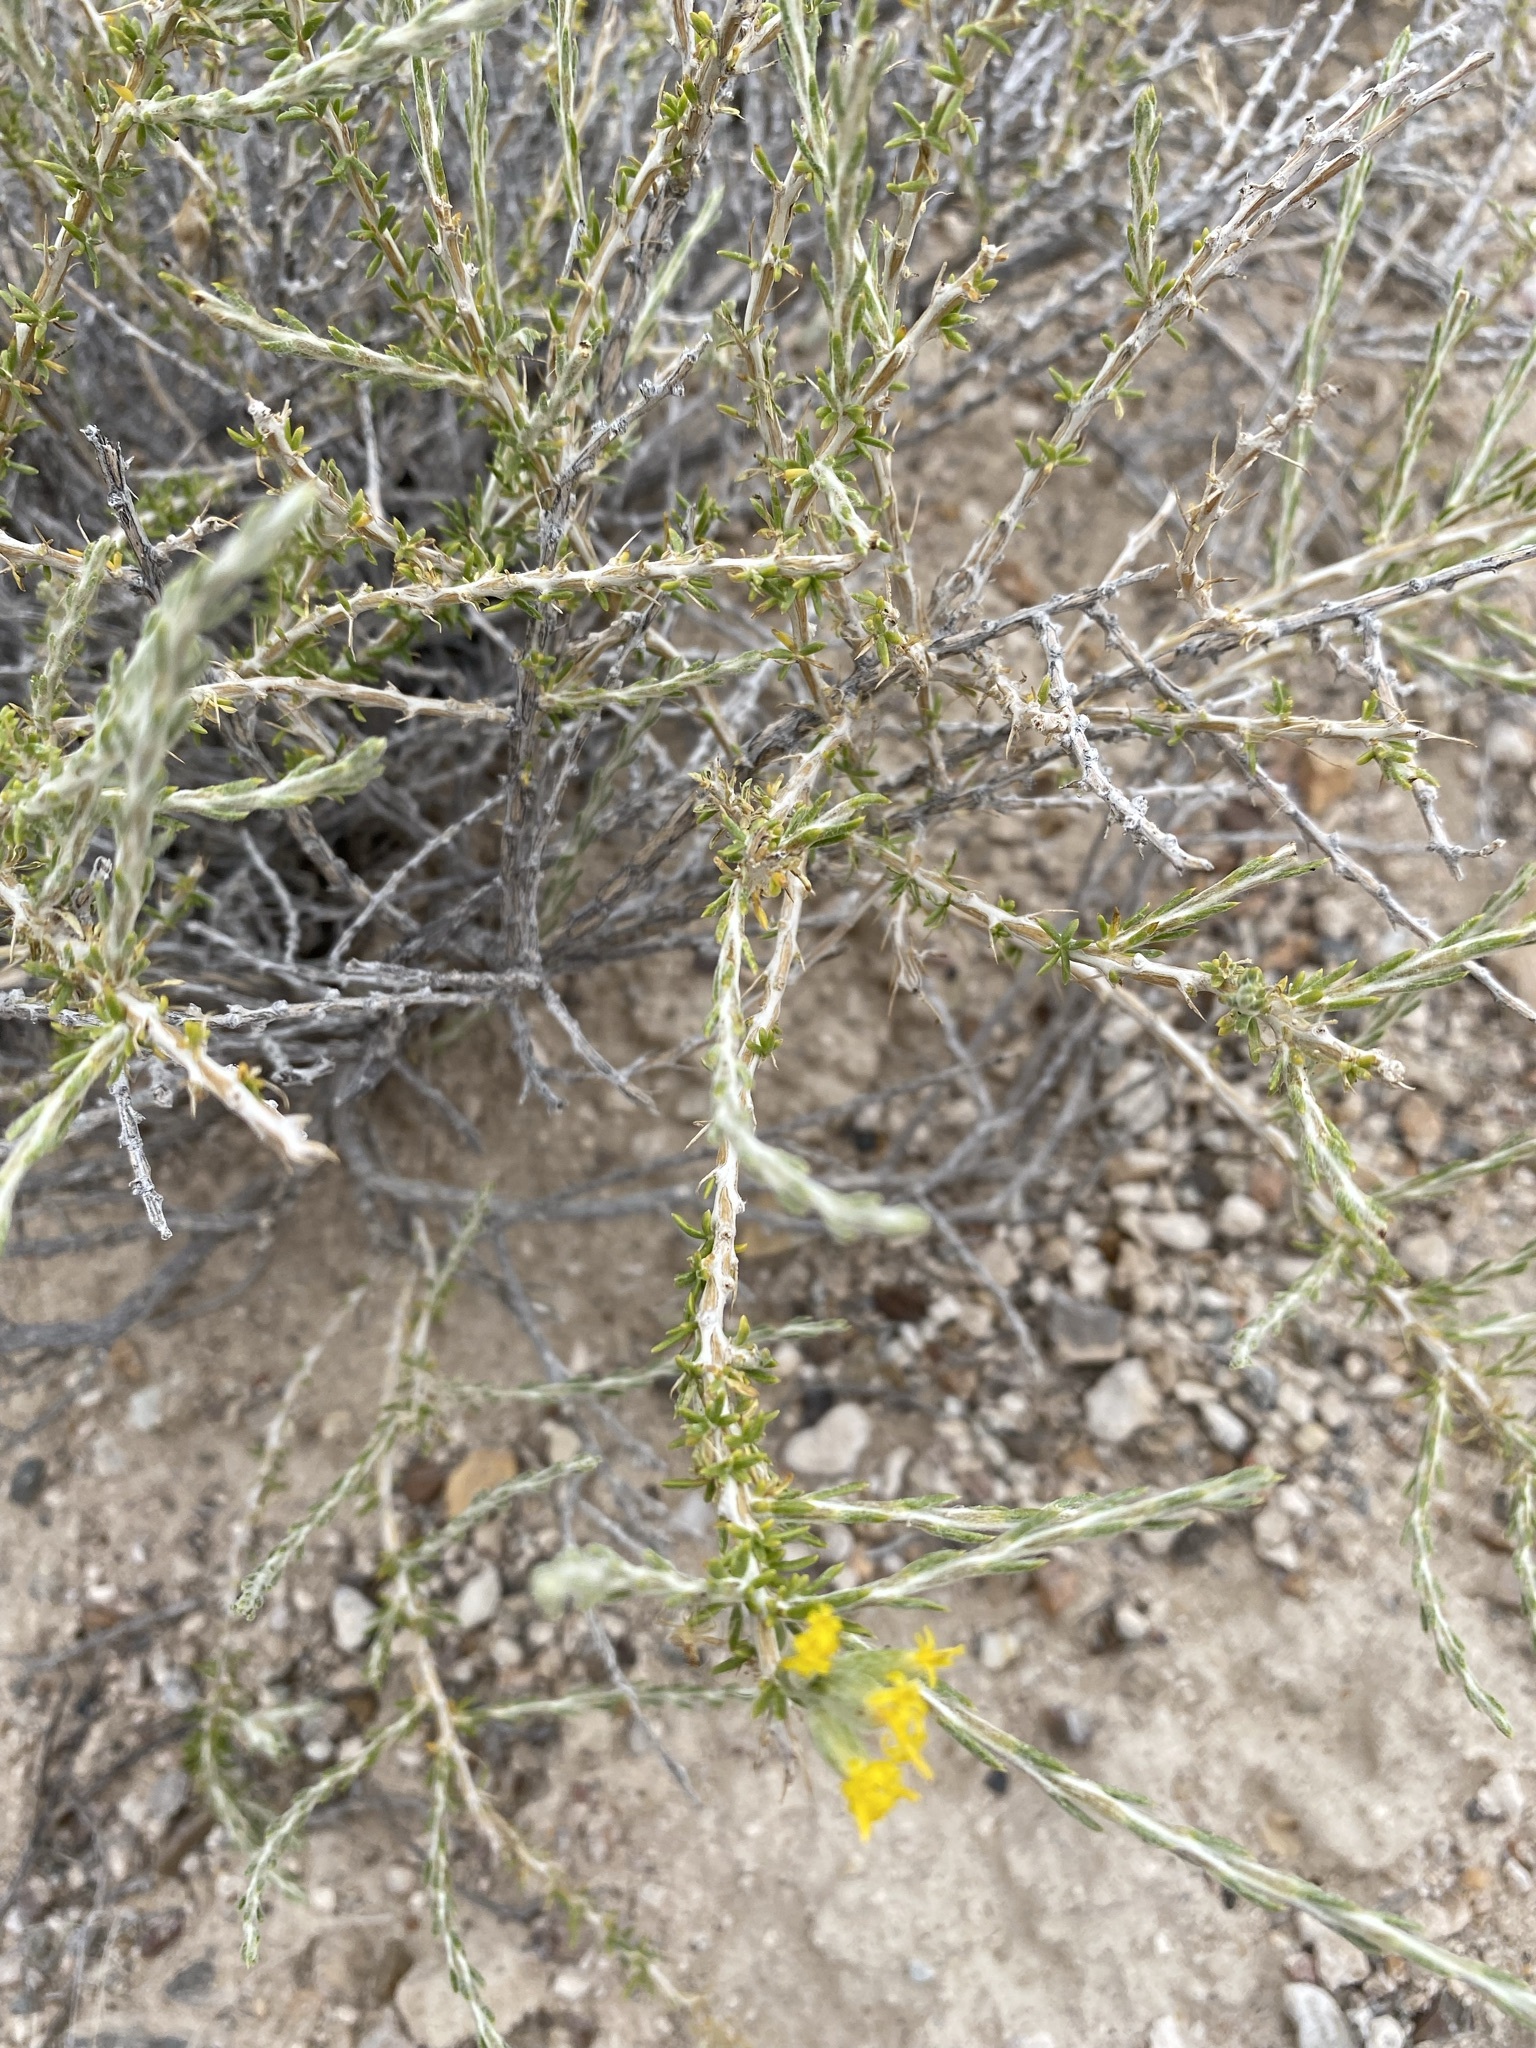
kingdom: Plantae
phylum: Tracheophyta
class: Magnoliopsida
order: Asterales
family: Asteraceae
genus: Tetradymia
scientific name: Tetradymia glabrata
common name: Smooth tetradymia
